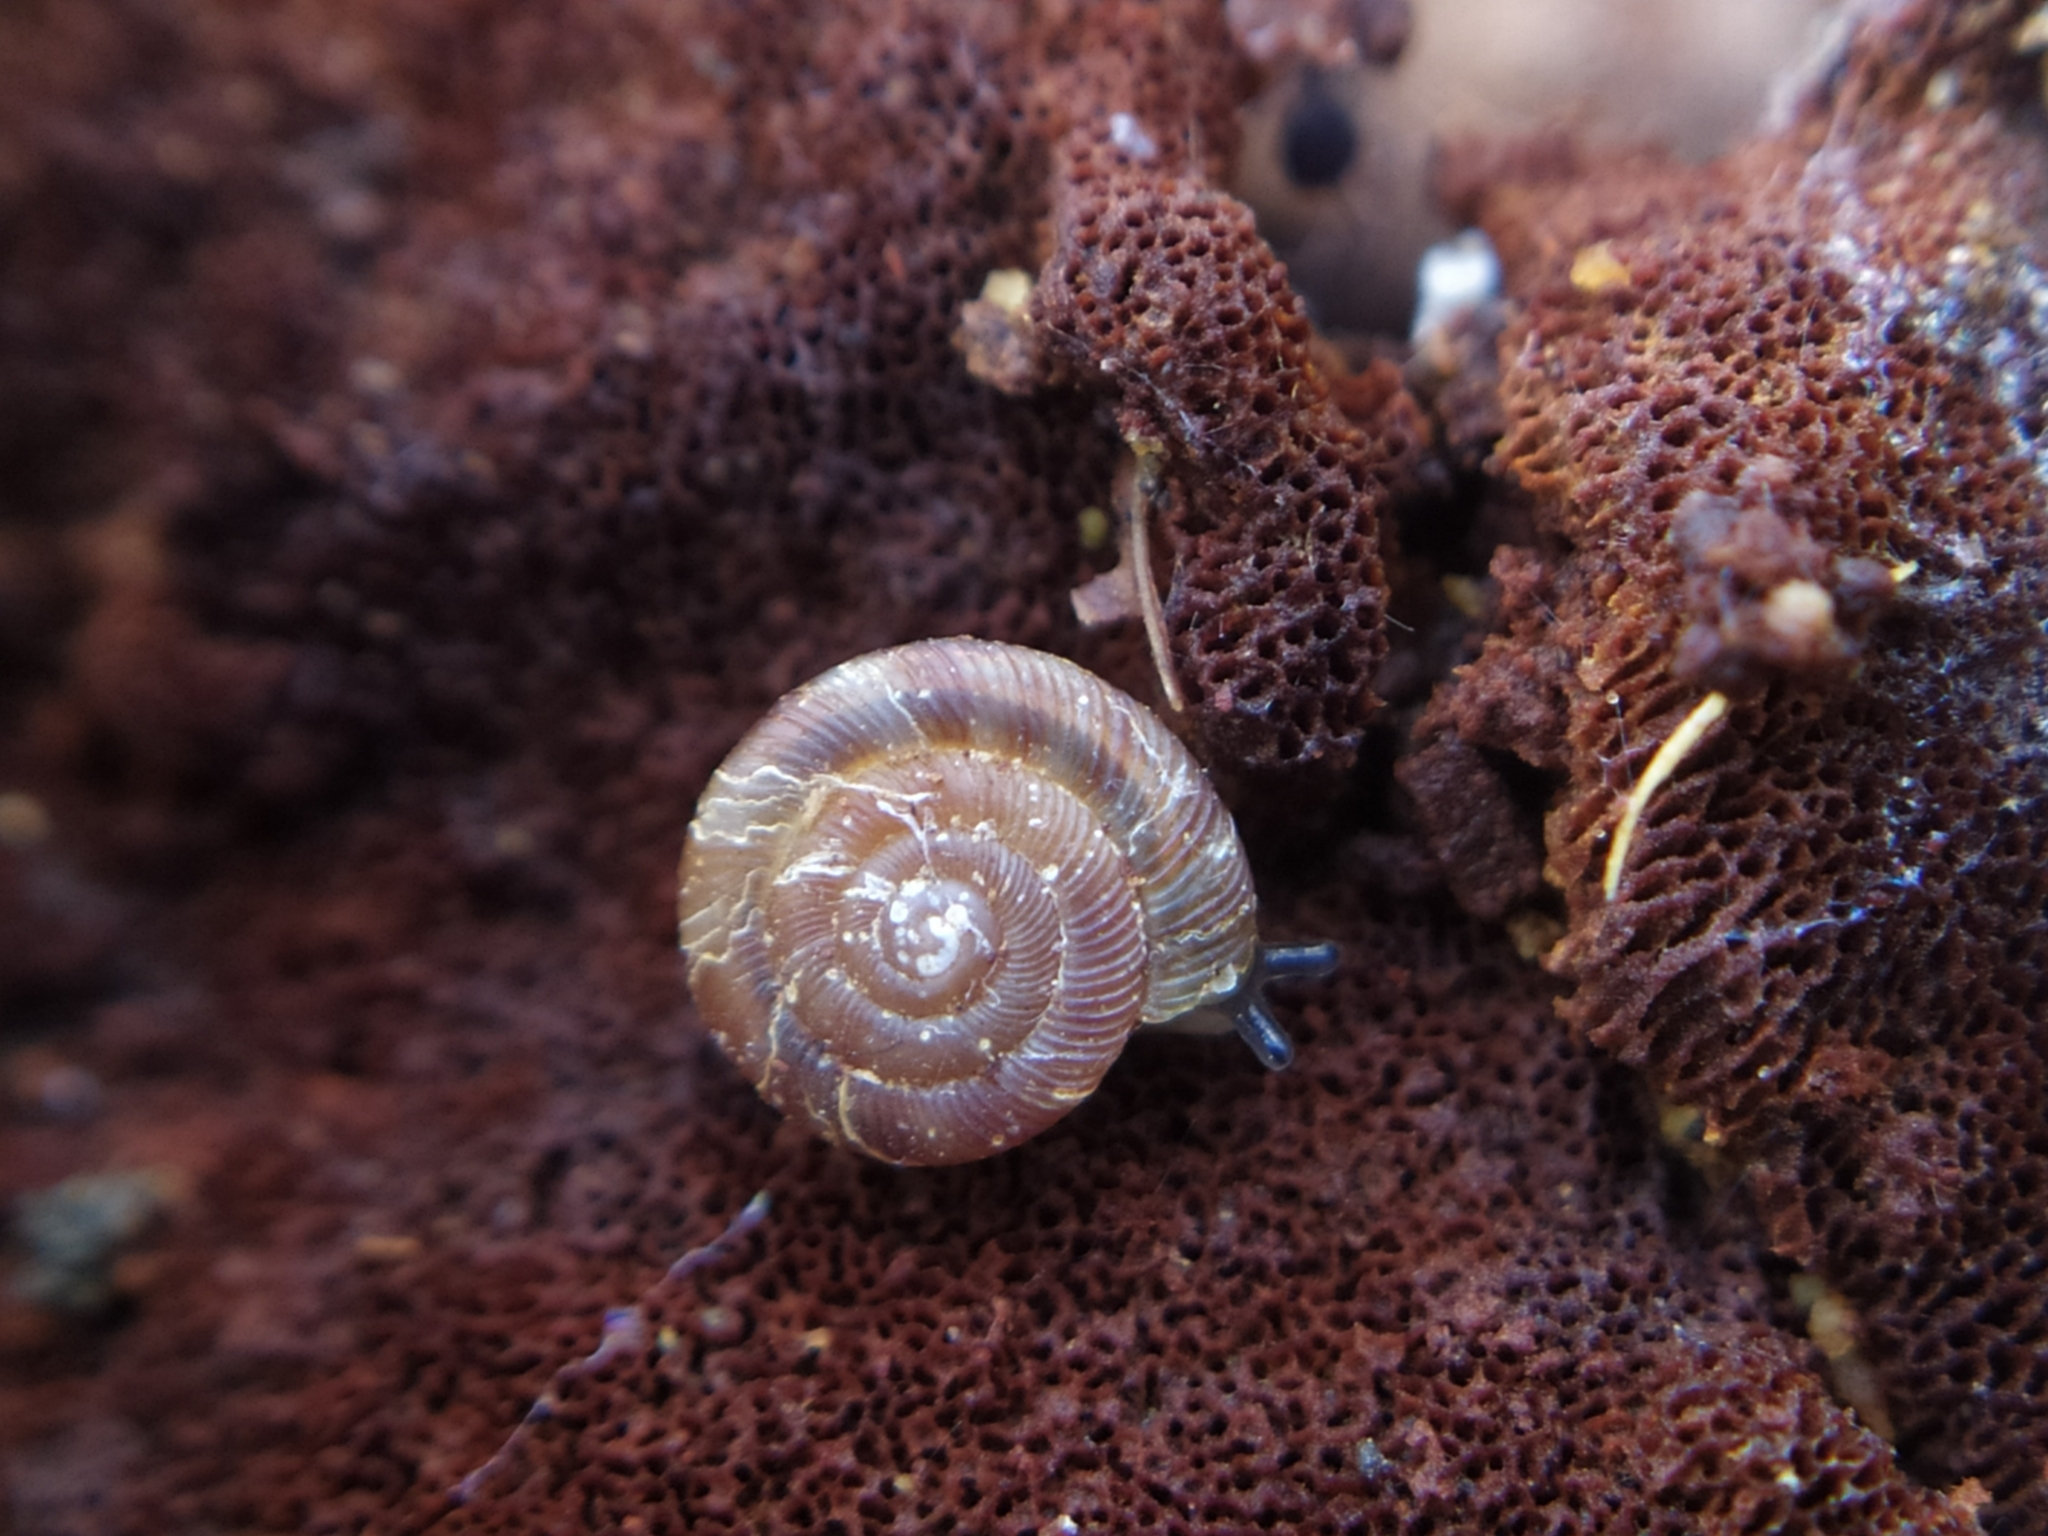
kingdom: Animalia
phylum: Mollusca
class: Gastropoda
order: Stylommatophora
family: Discidae
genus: Discus
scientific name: Discus rotundatus
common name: Rounded snail
